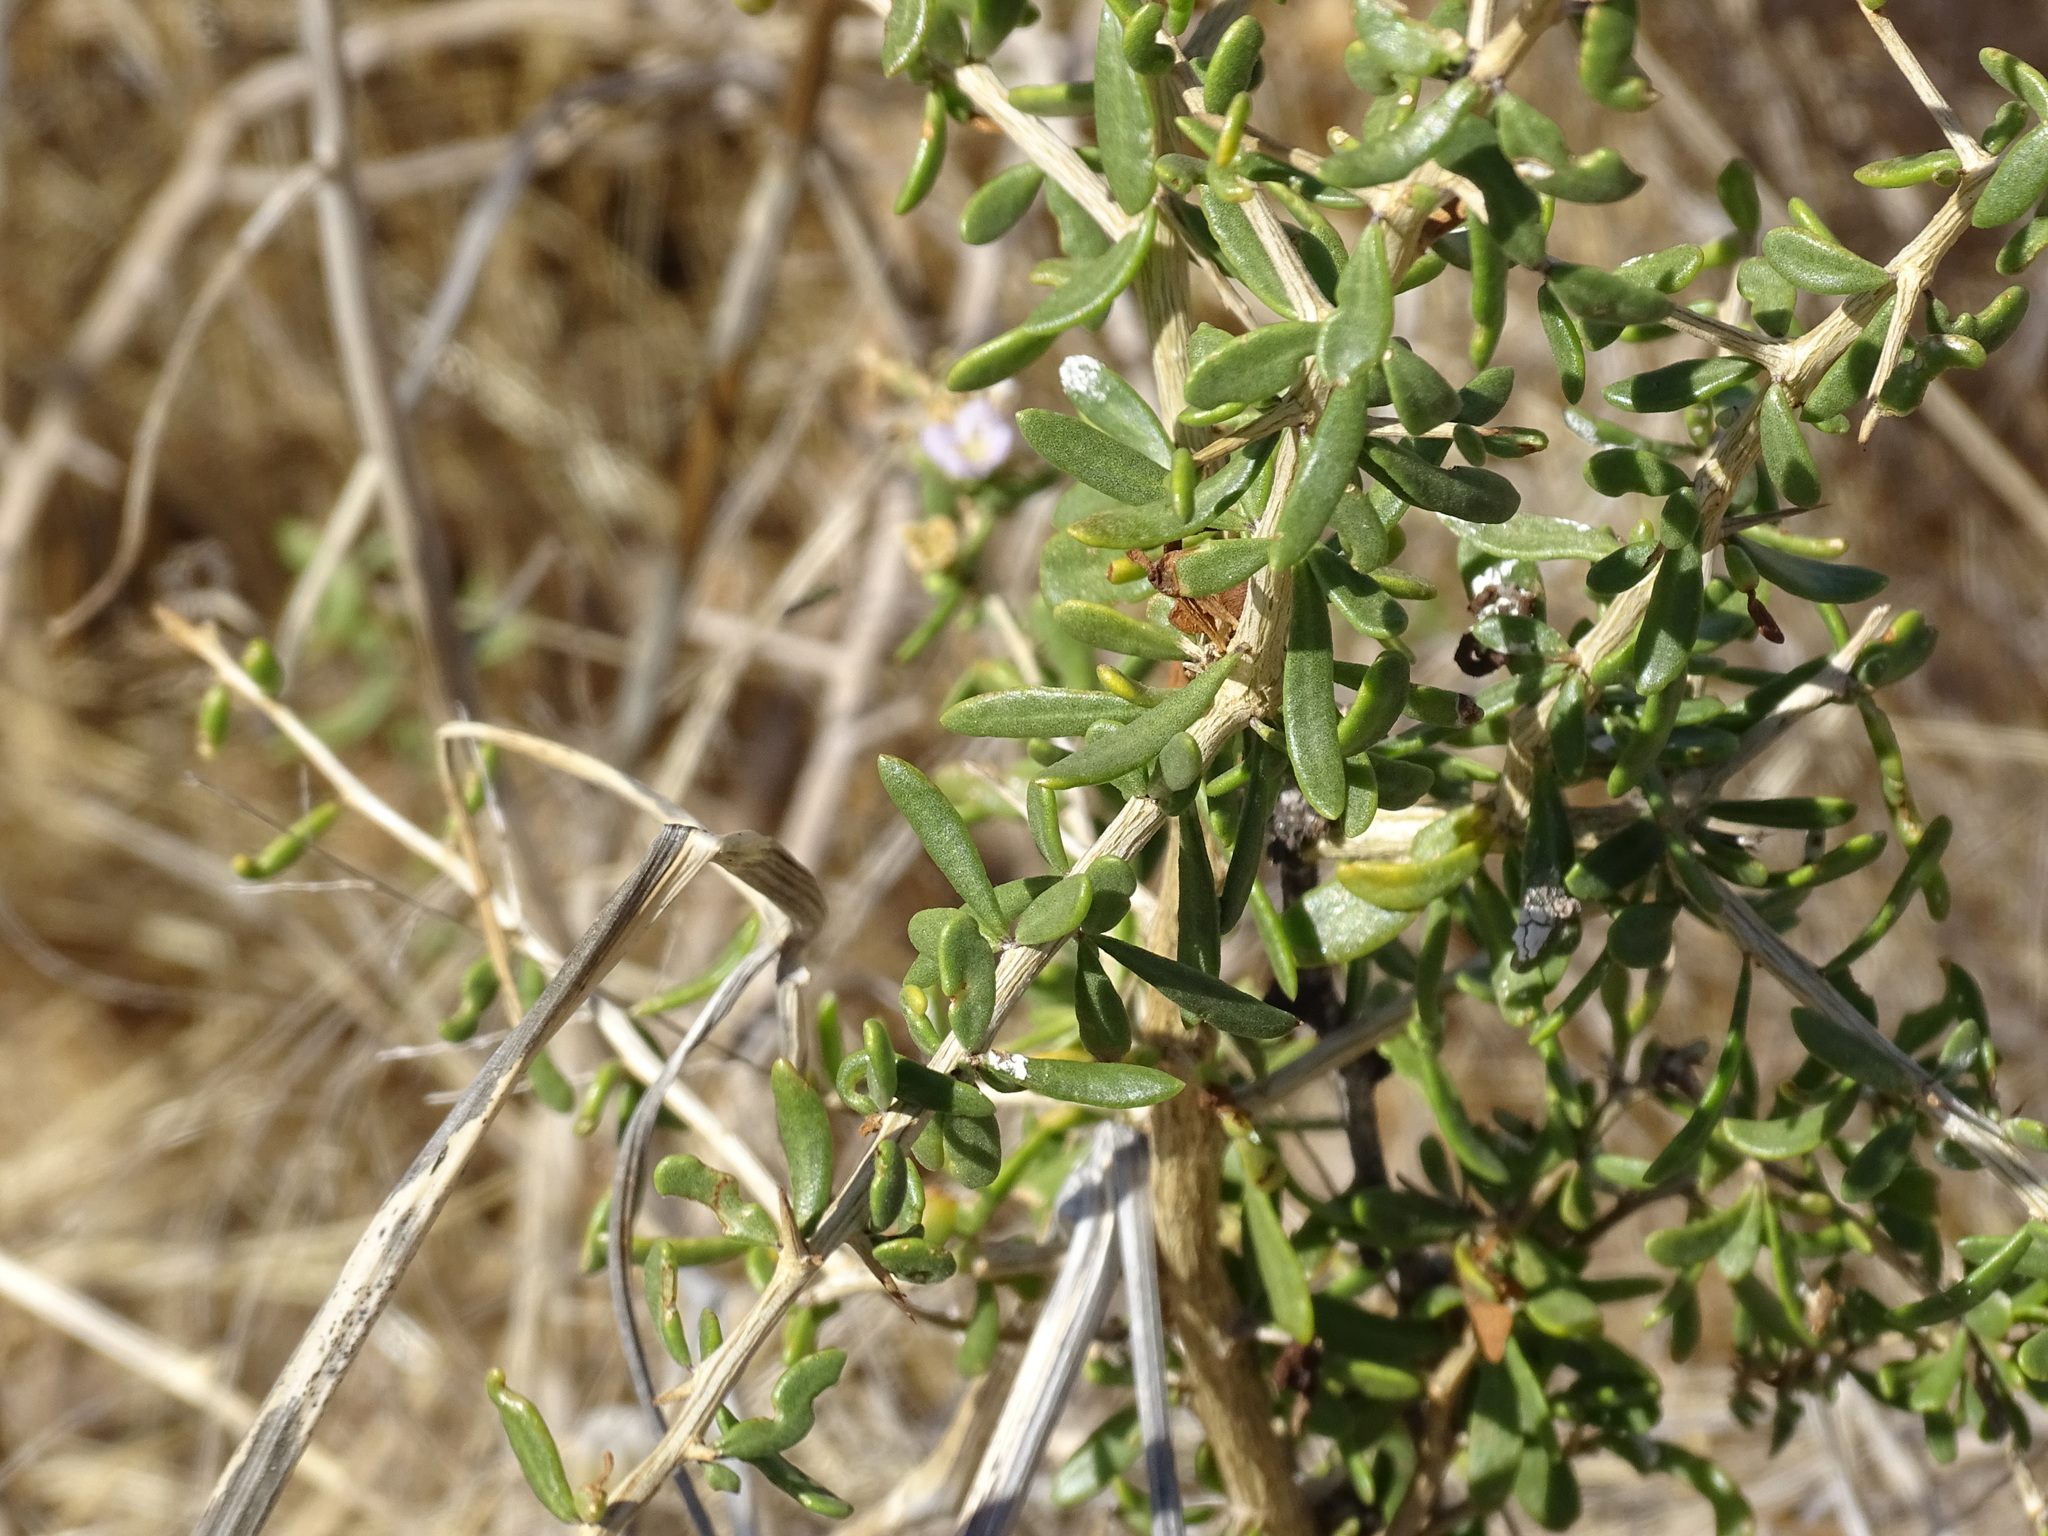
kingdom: Plantae
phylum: Tracheophyta
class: Magnoliopsida
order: Solanales
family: Solanaceae
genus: Lycium
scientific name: Lycium brevipes
